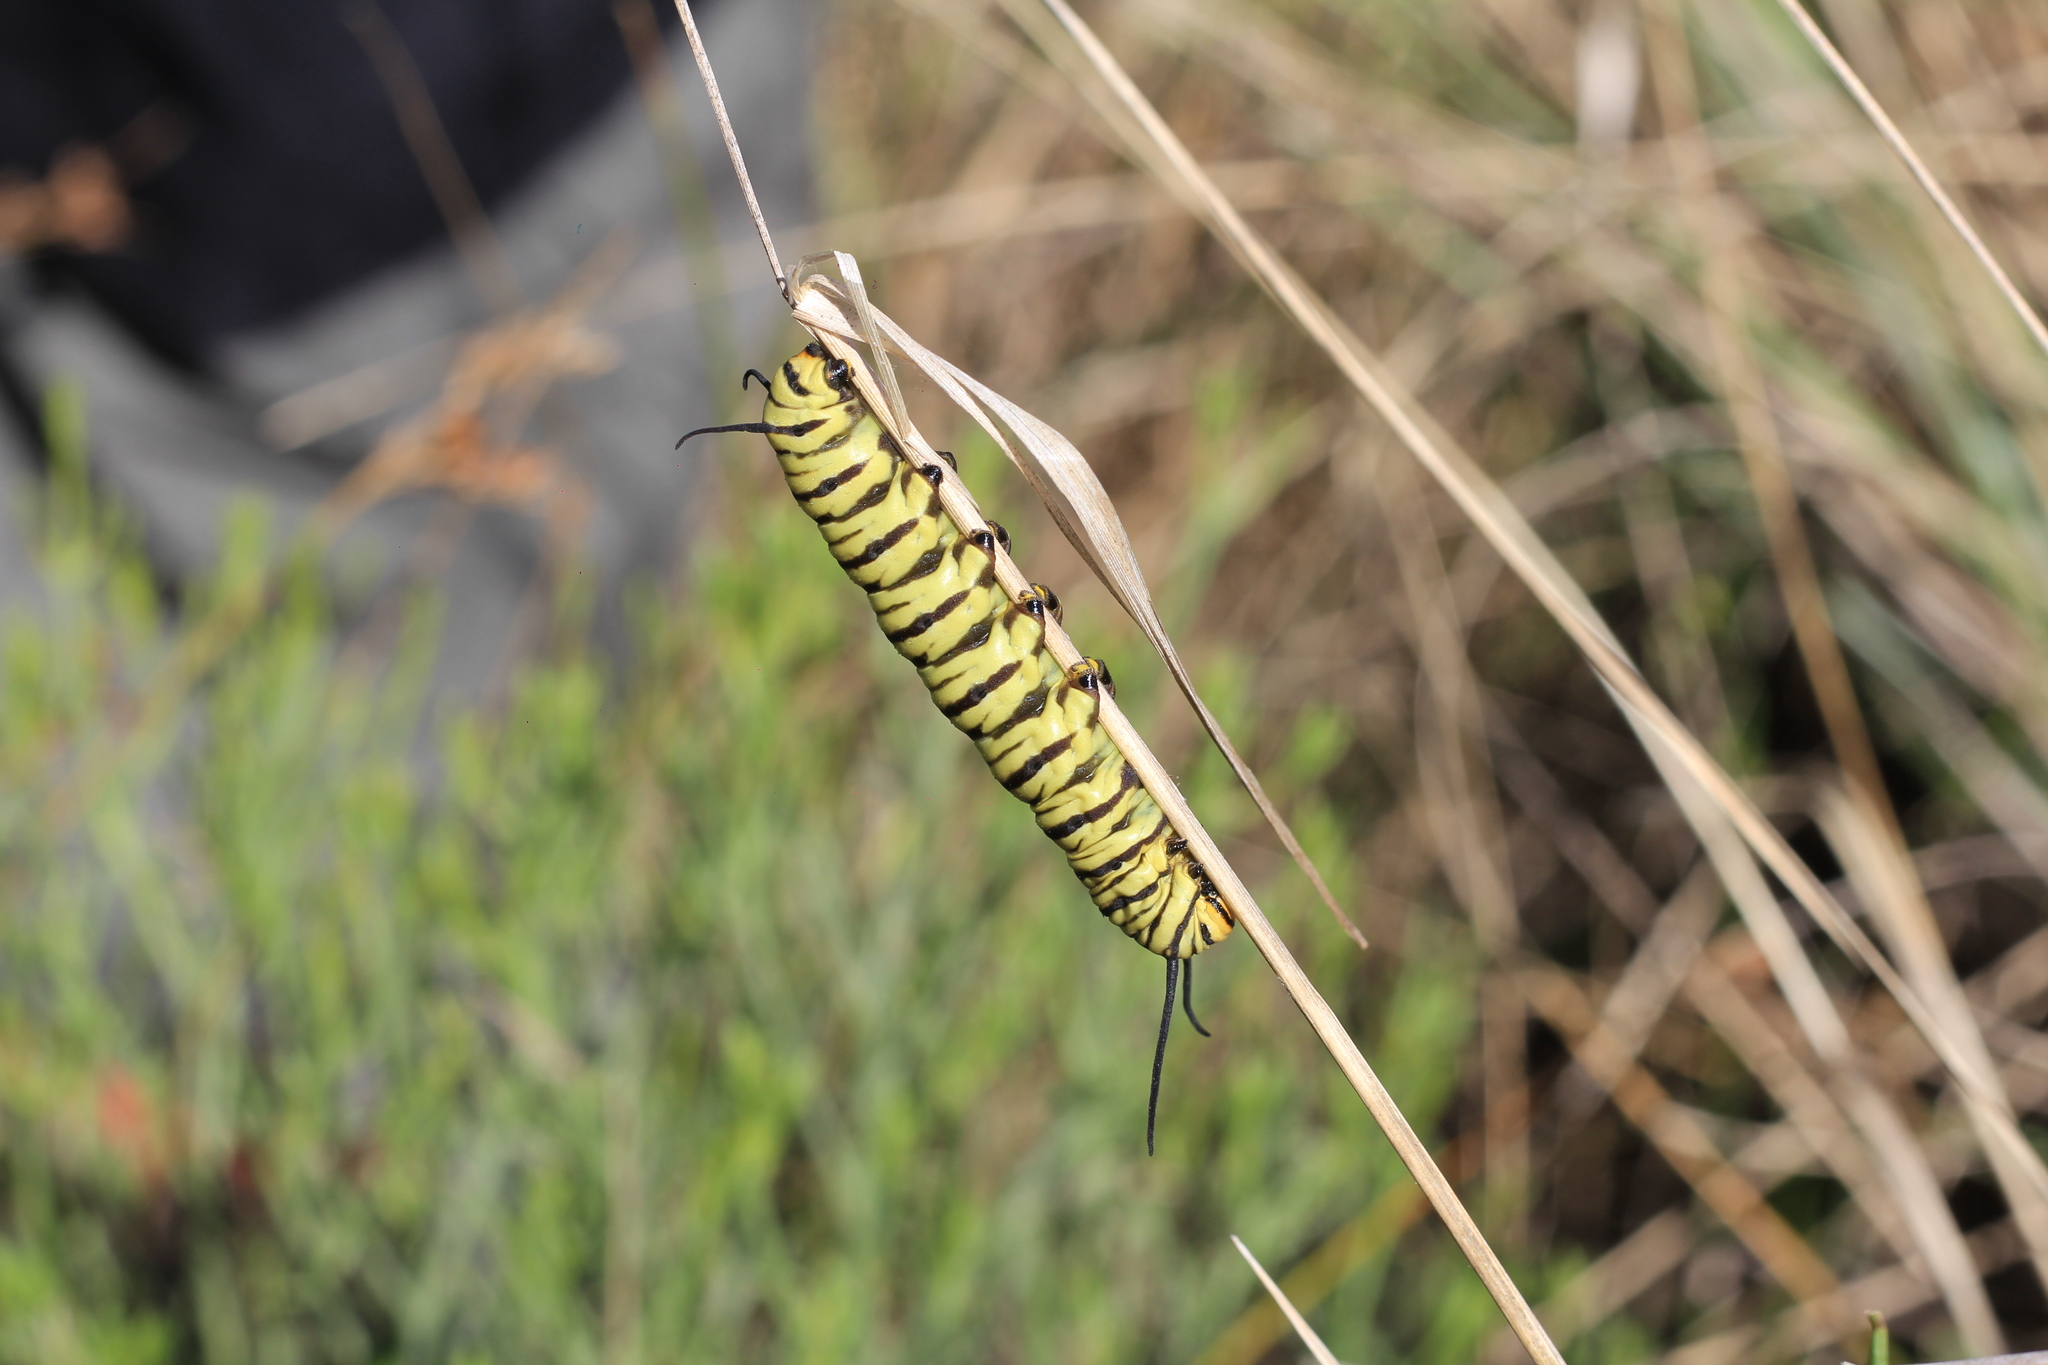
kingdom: Animalia
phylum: Arthropoda
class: Insecta
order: Lepidoptera
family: Nymphalidae
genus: Danaus
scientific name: Danaus erippus
